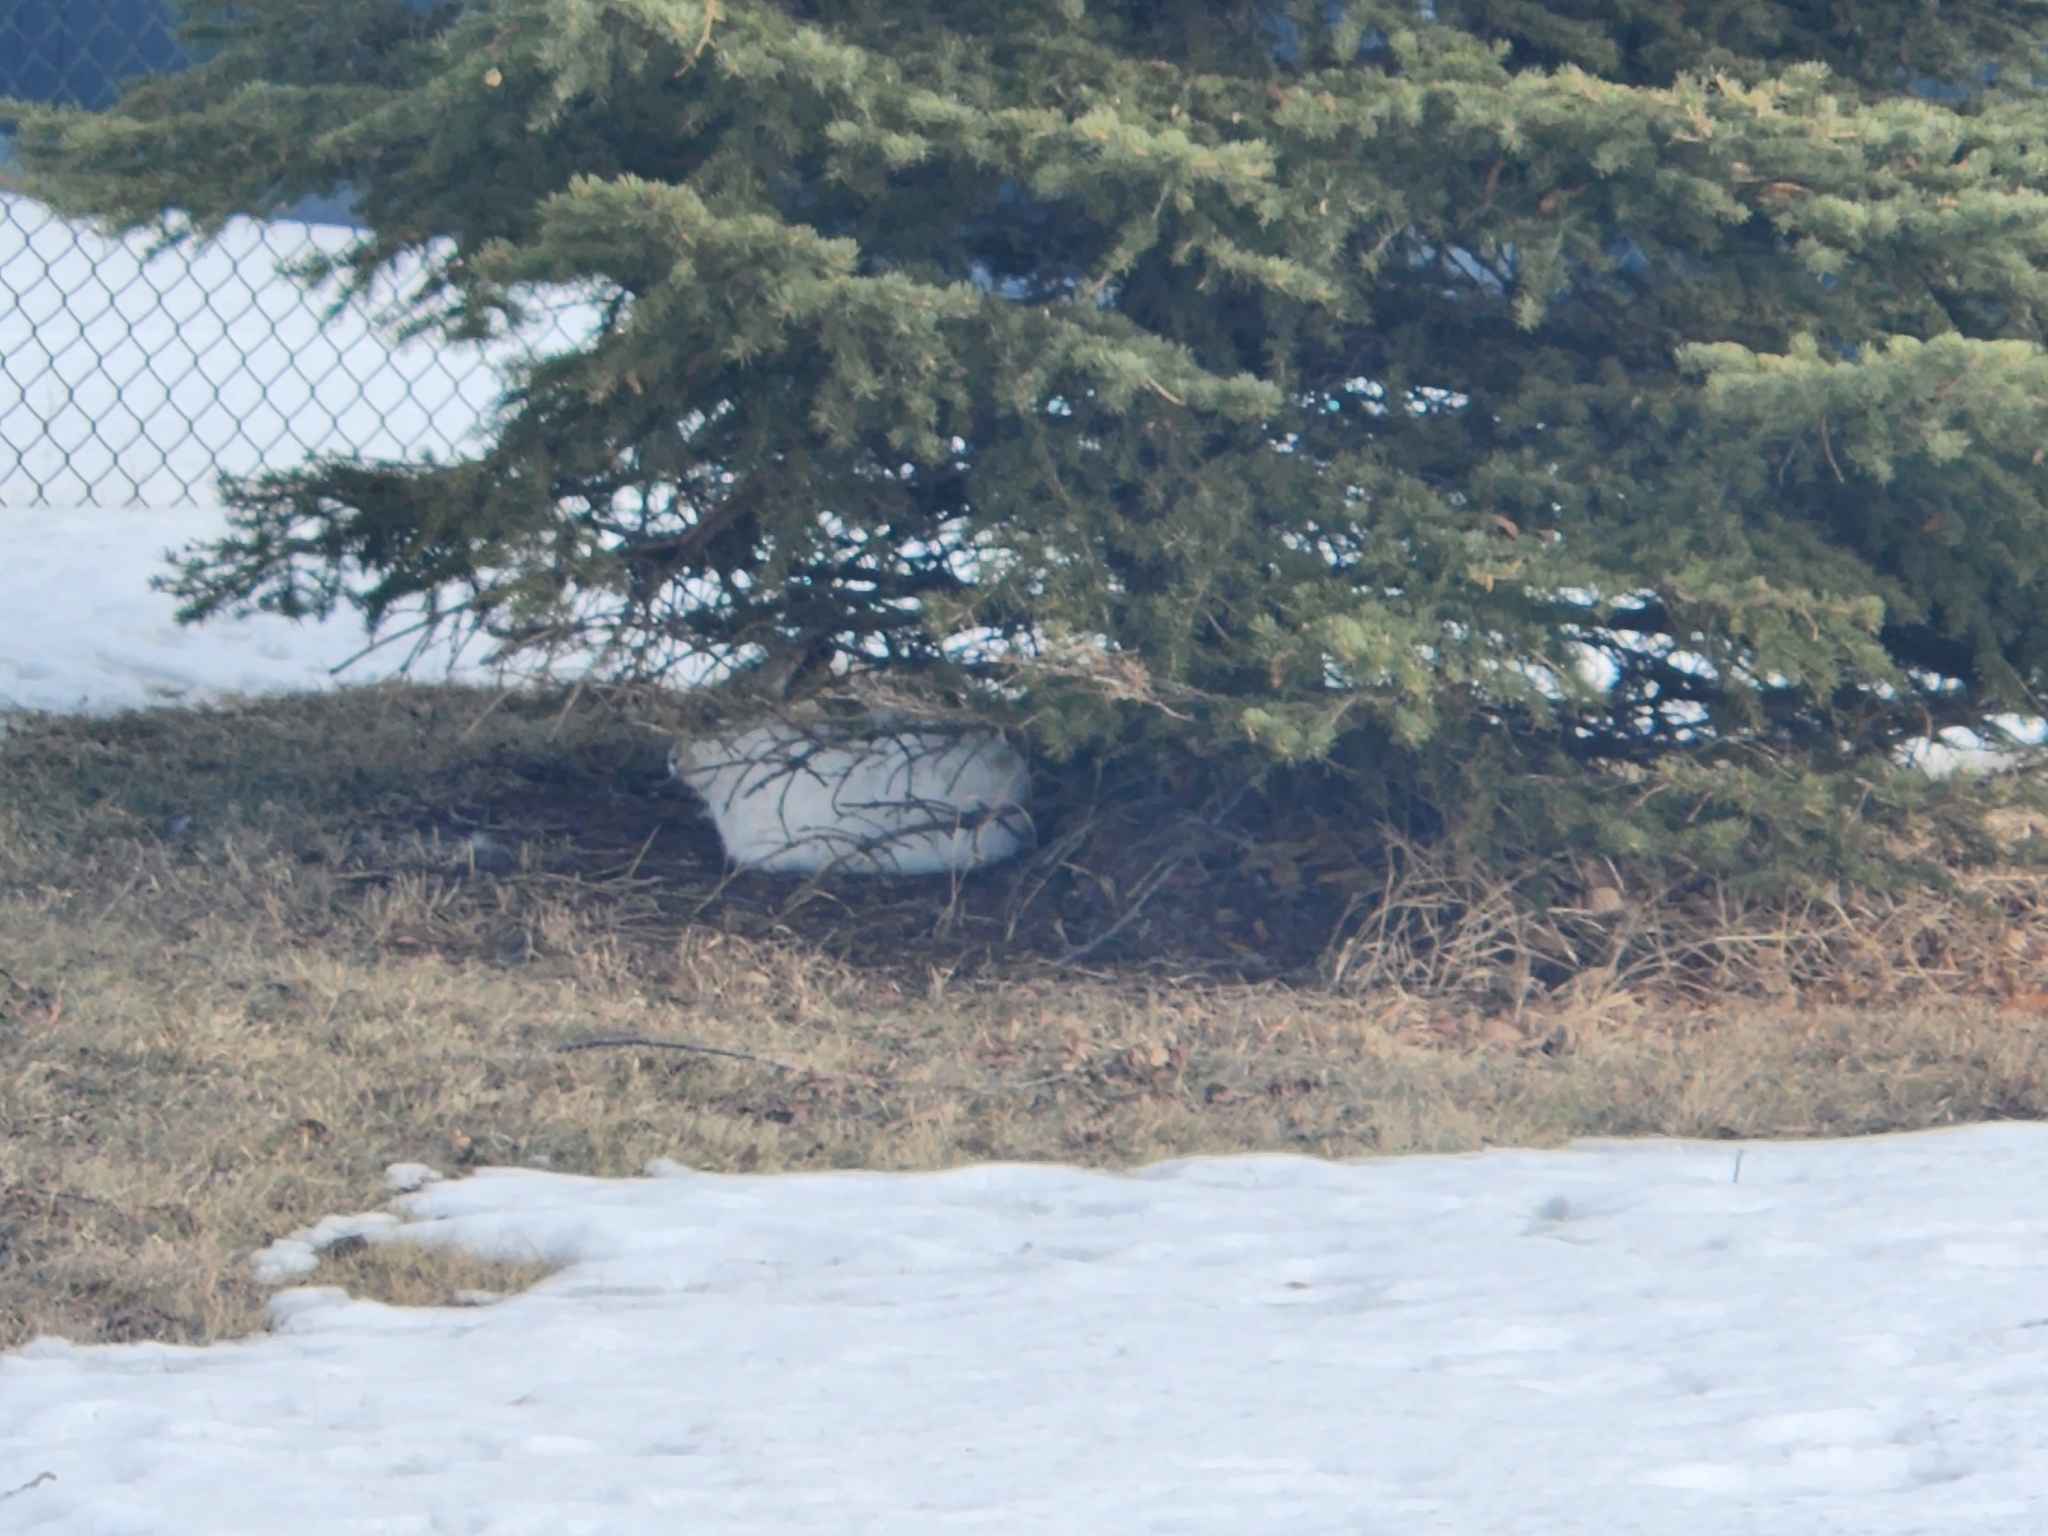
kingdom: Animalia
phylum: Chordata
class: Mammalia
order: Lagomorpha
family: Leporidae
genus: Lepus
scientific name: Lepus townsendii
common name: White-tailed jackrabbit
